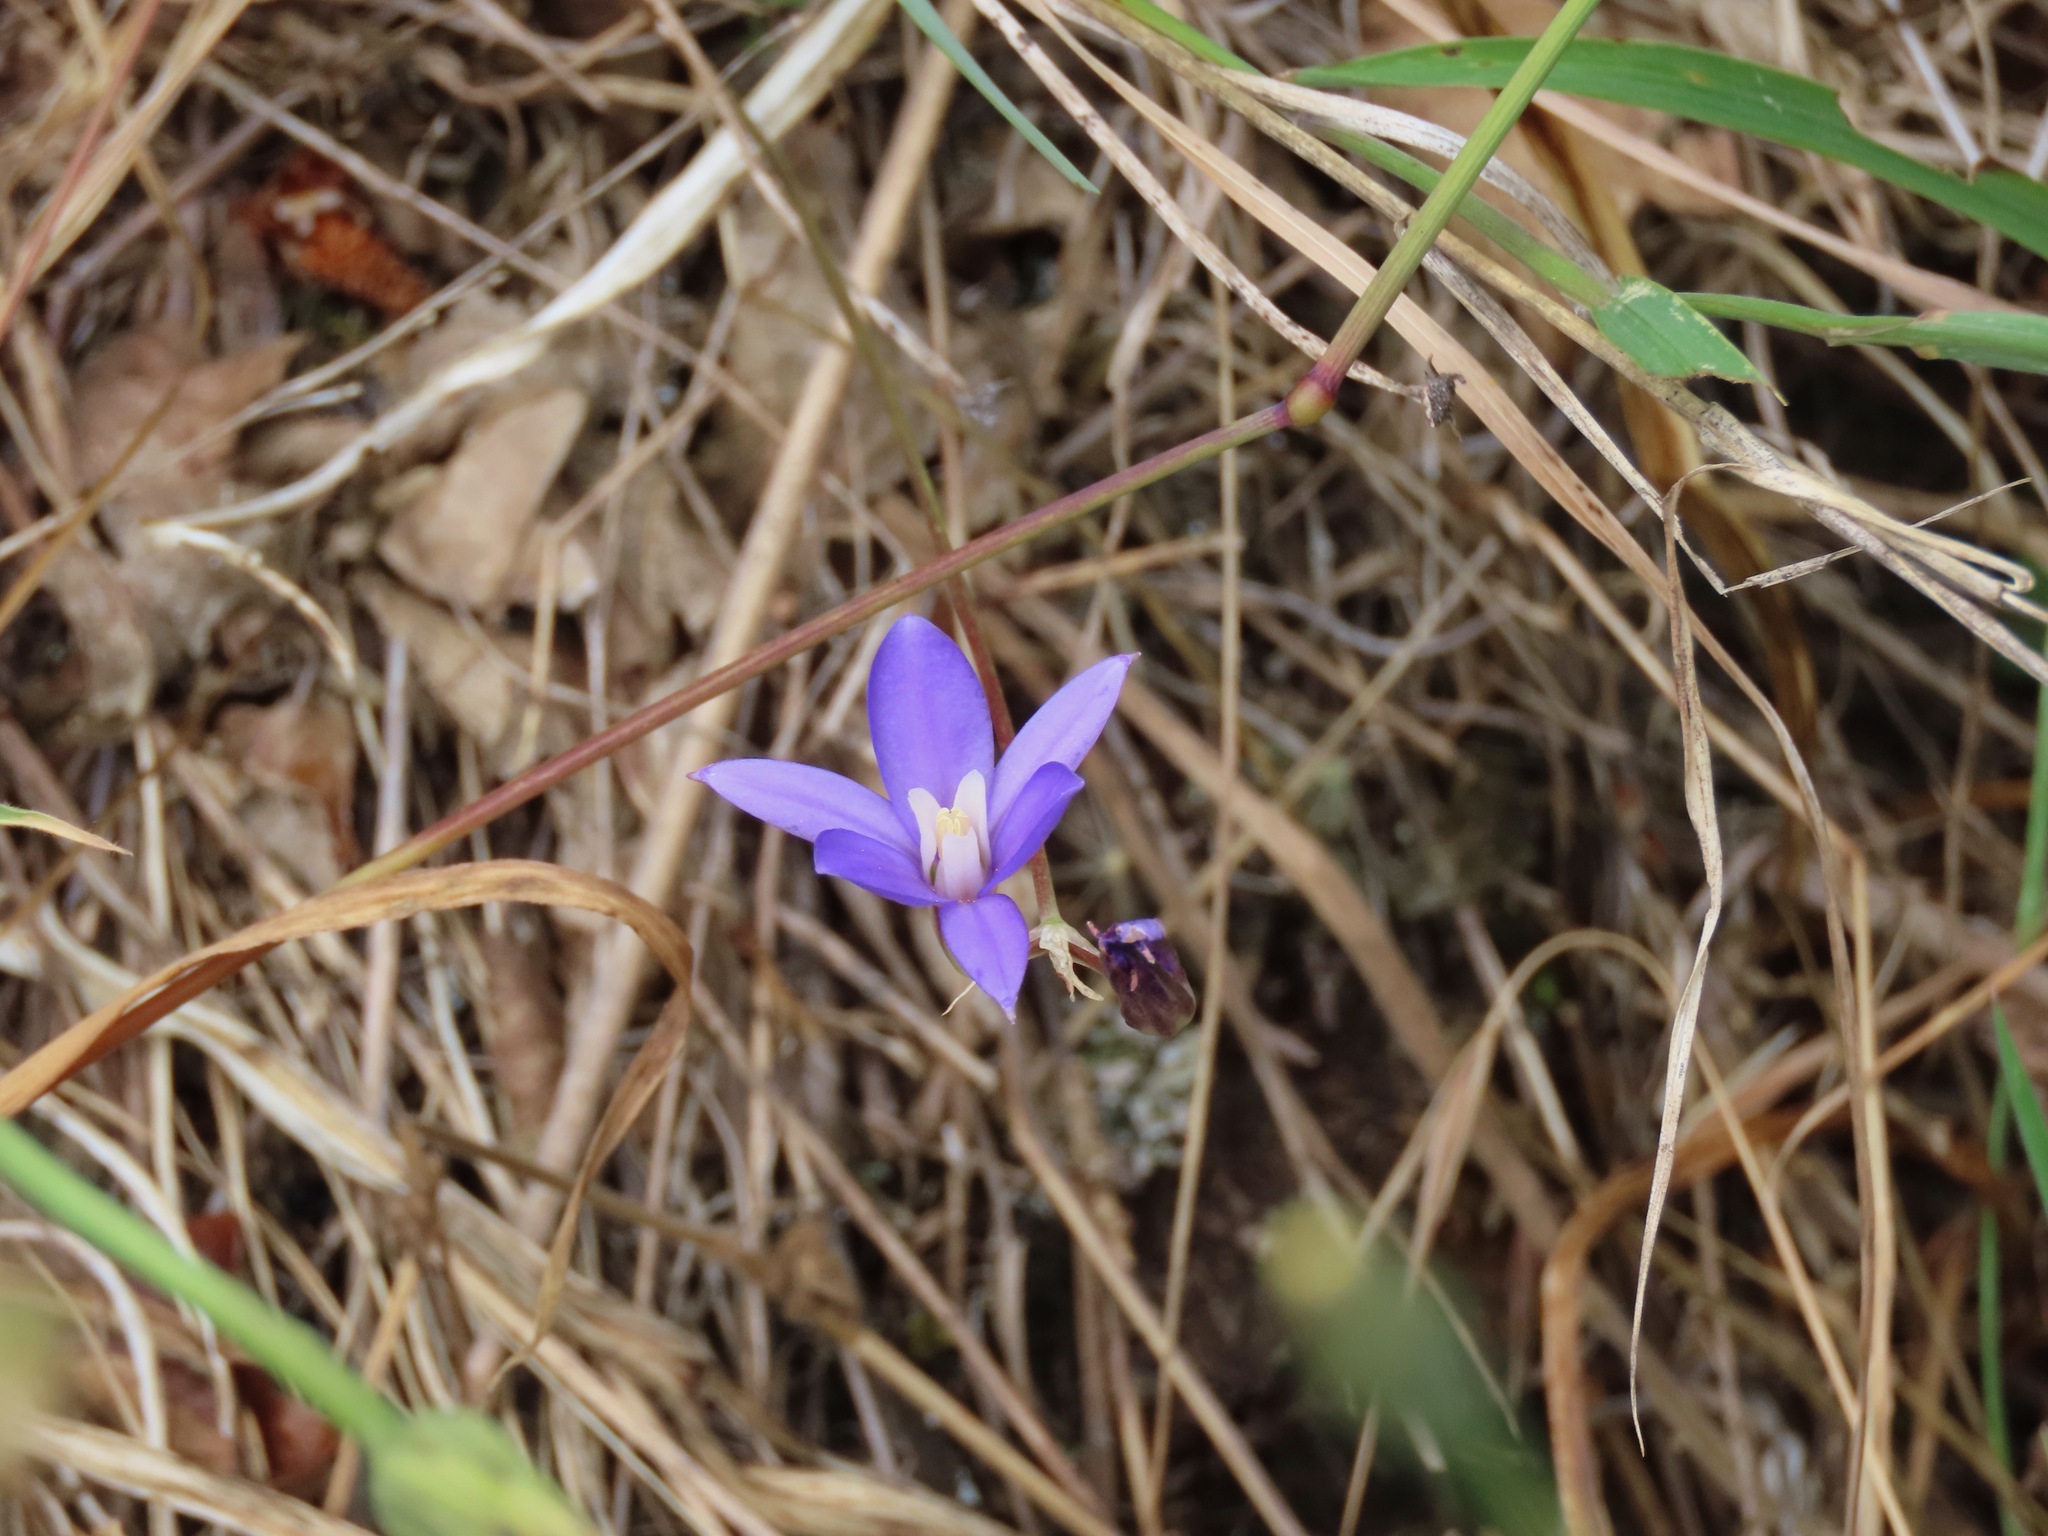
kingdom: Plantae
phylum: Tracheophyta
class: Liliopsida
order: Asparagales
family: Asparagaceae
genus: Brodiaea
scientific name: Brodiaea coronaria
